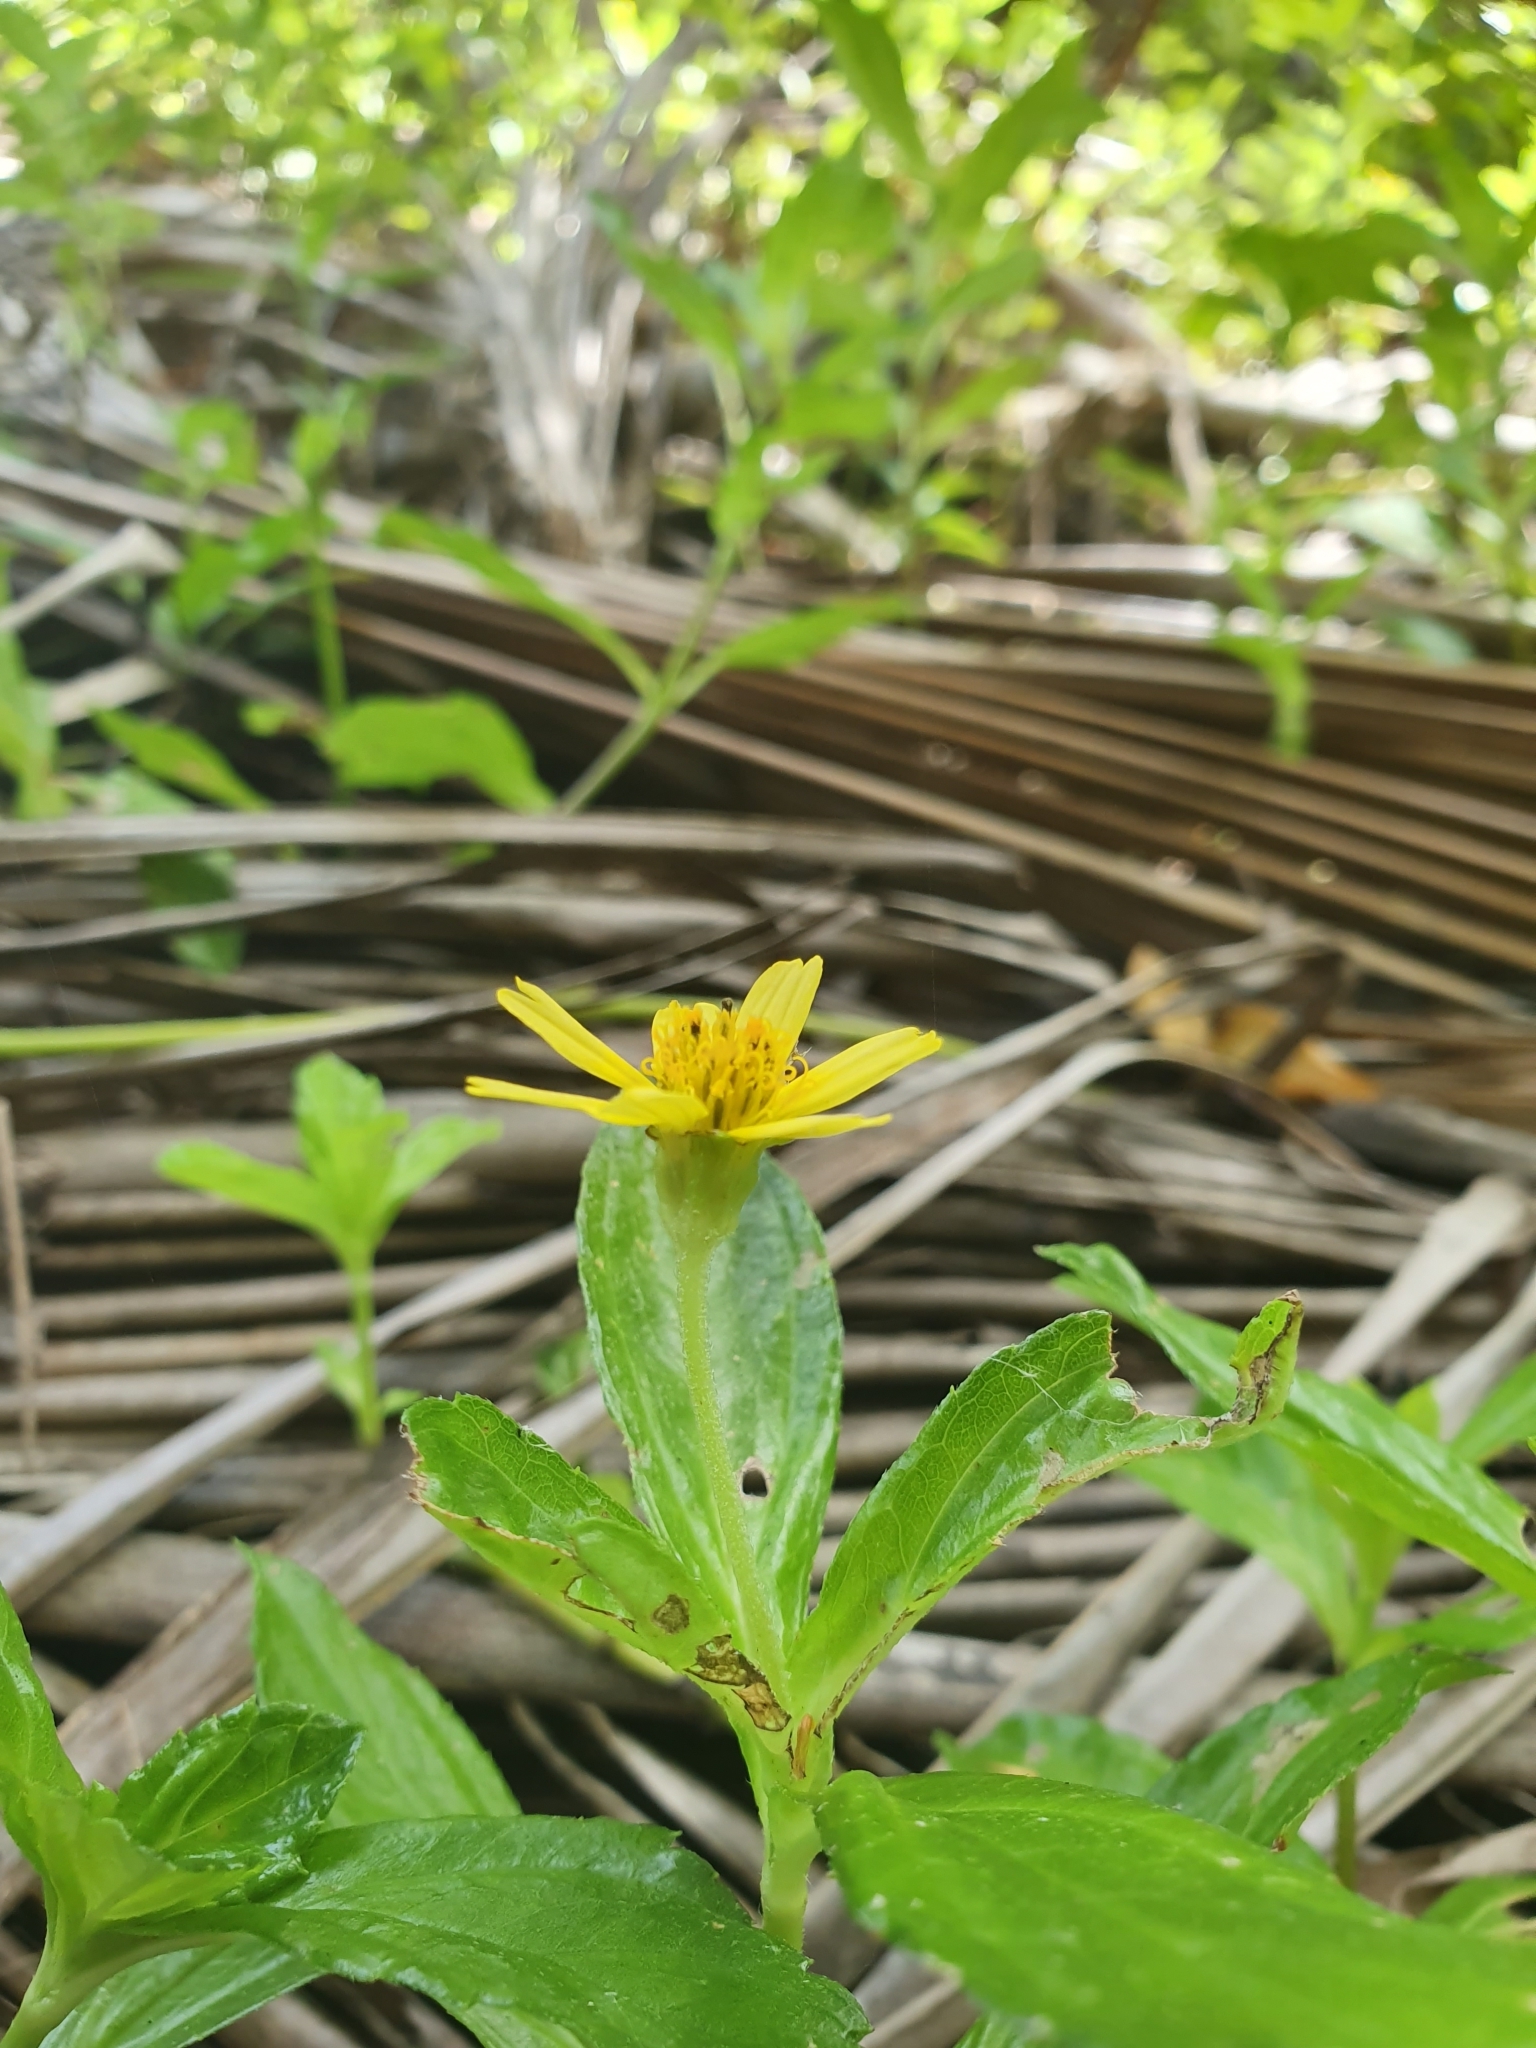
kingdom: Plantae
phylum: Tracheophyta
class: Magnoliopsida
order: Asterales
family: Asteraceae
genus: Sphagneticola
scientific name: Sphagneticola trilobata
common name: Bay biscayne creeping-oxeye
